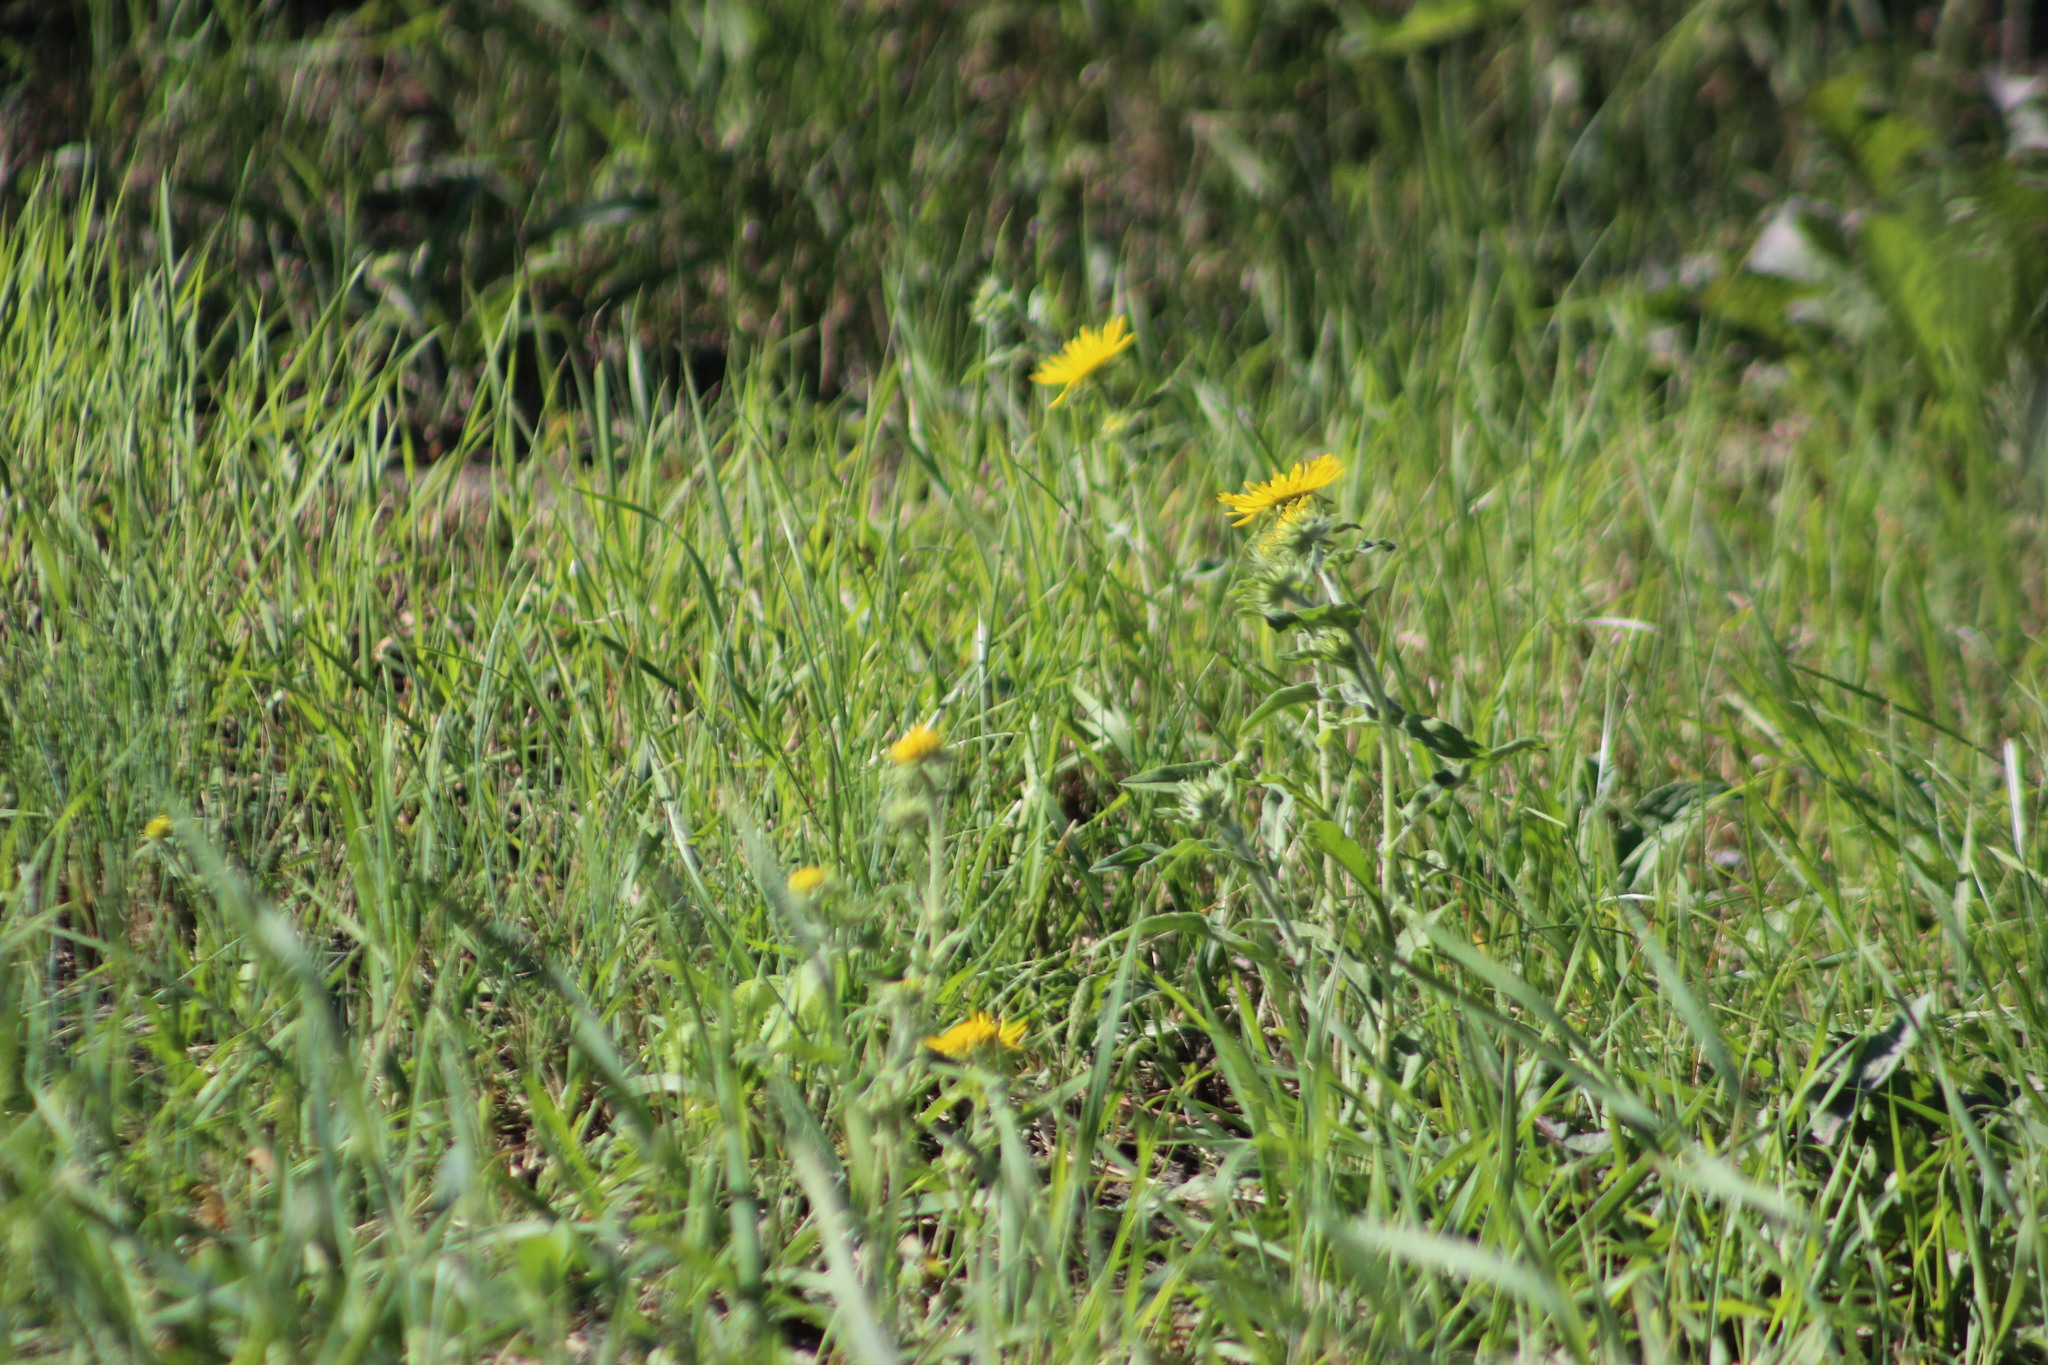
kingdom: Plantae
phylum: Tracheophyta
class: Magnoliopsida
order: Asterales
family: Asteraceae
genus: Pentanema
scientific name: Pentanema britannicum
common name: British elecampane
